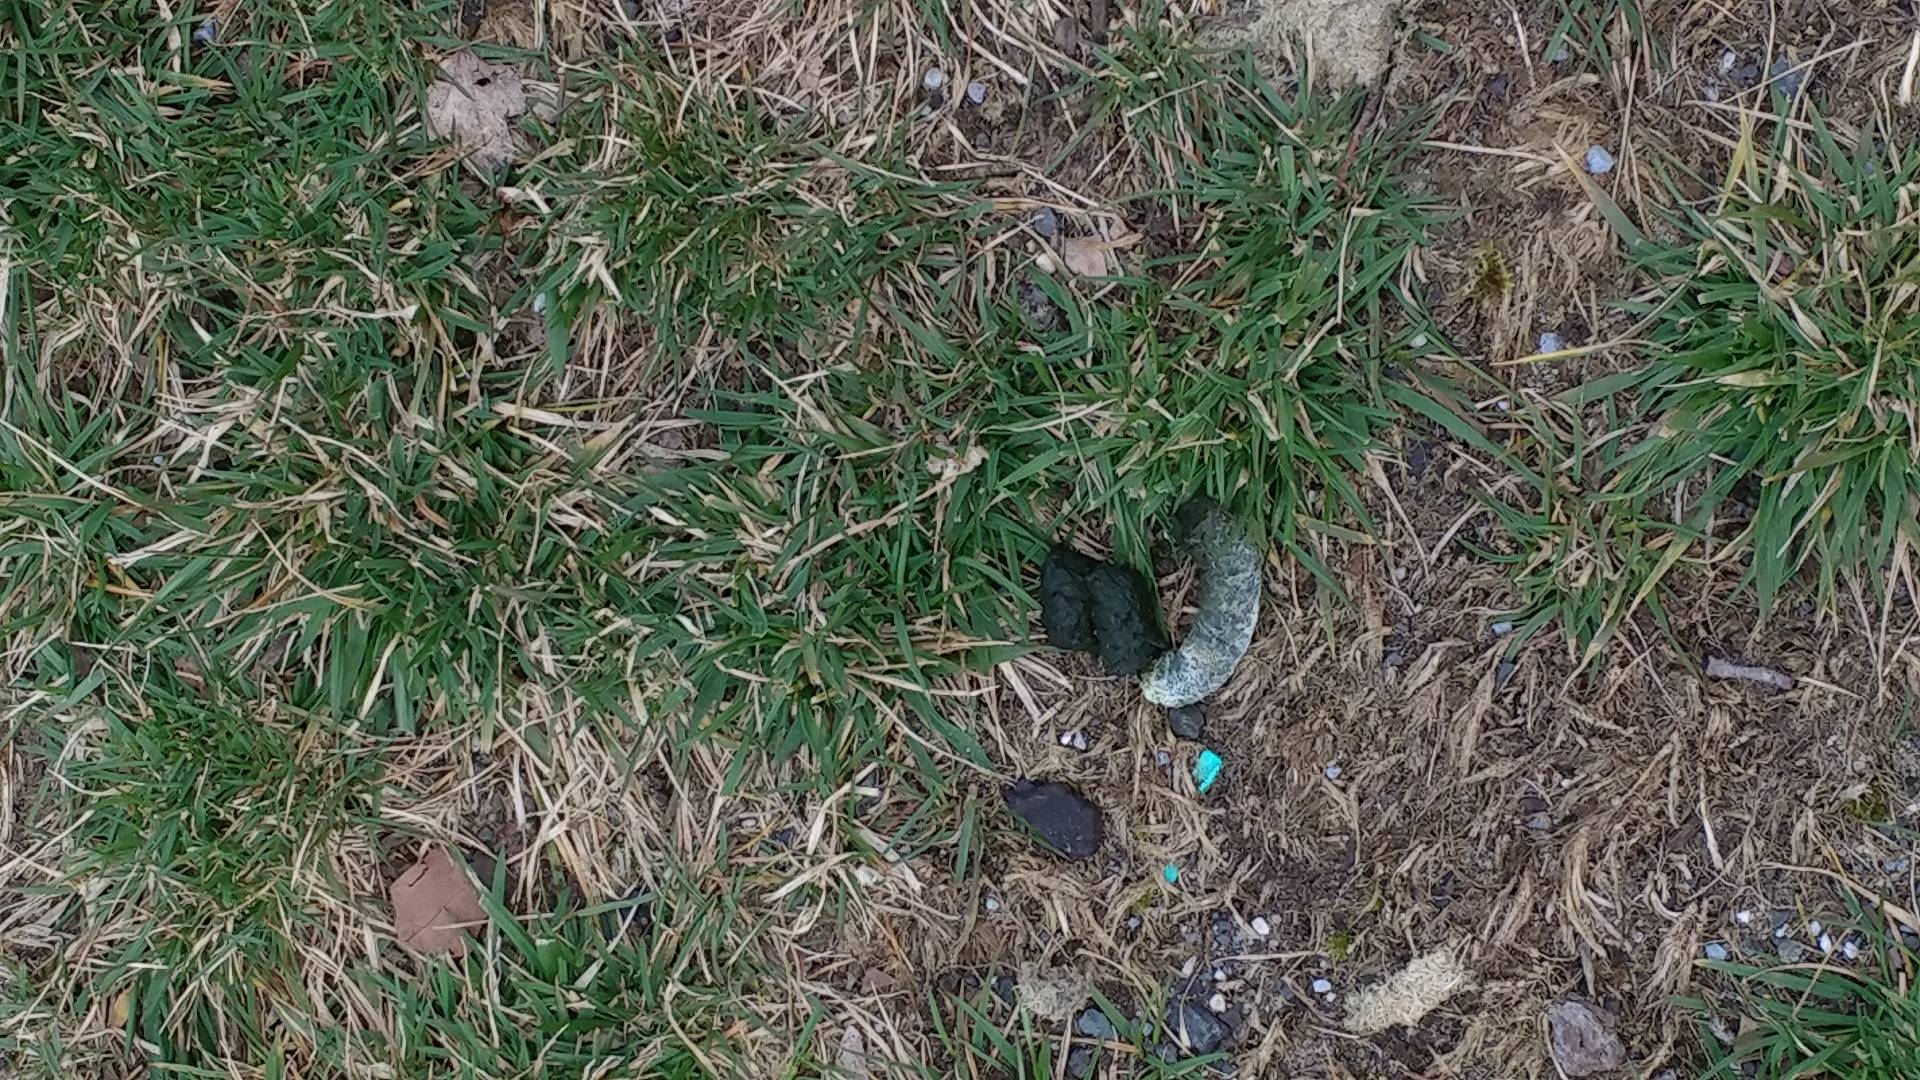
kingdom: Animalia
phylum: Chordata
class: Aves
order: Anseriformes
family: Anatidae
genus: Branta
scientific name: Branta canadensis
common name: Canada goose
